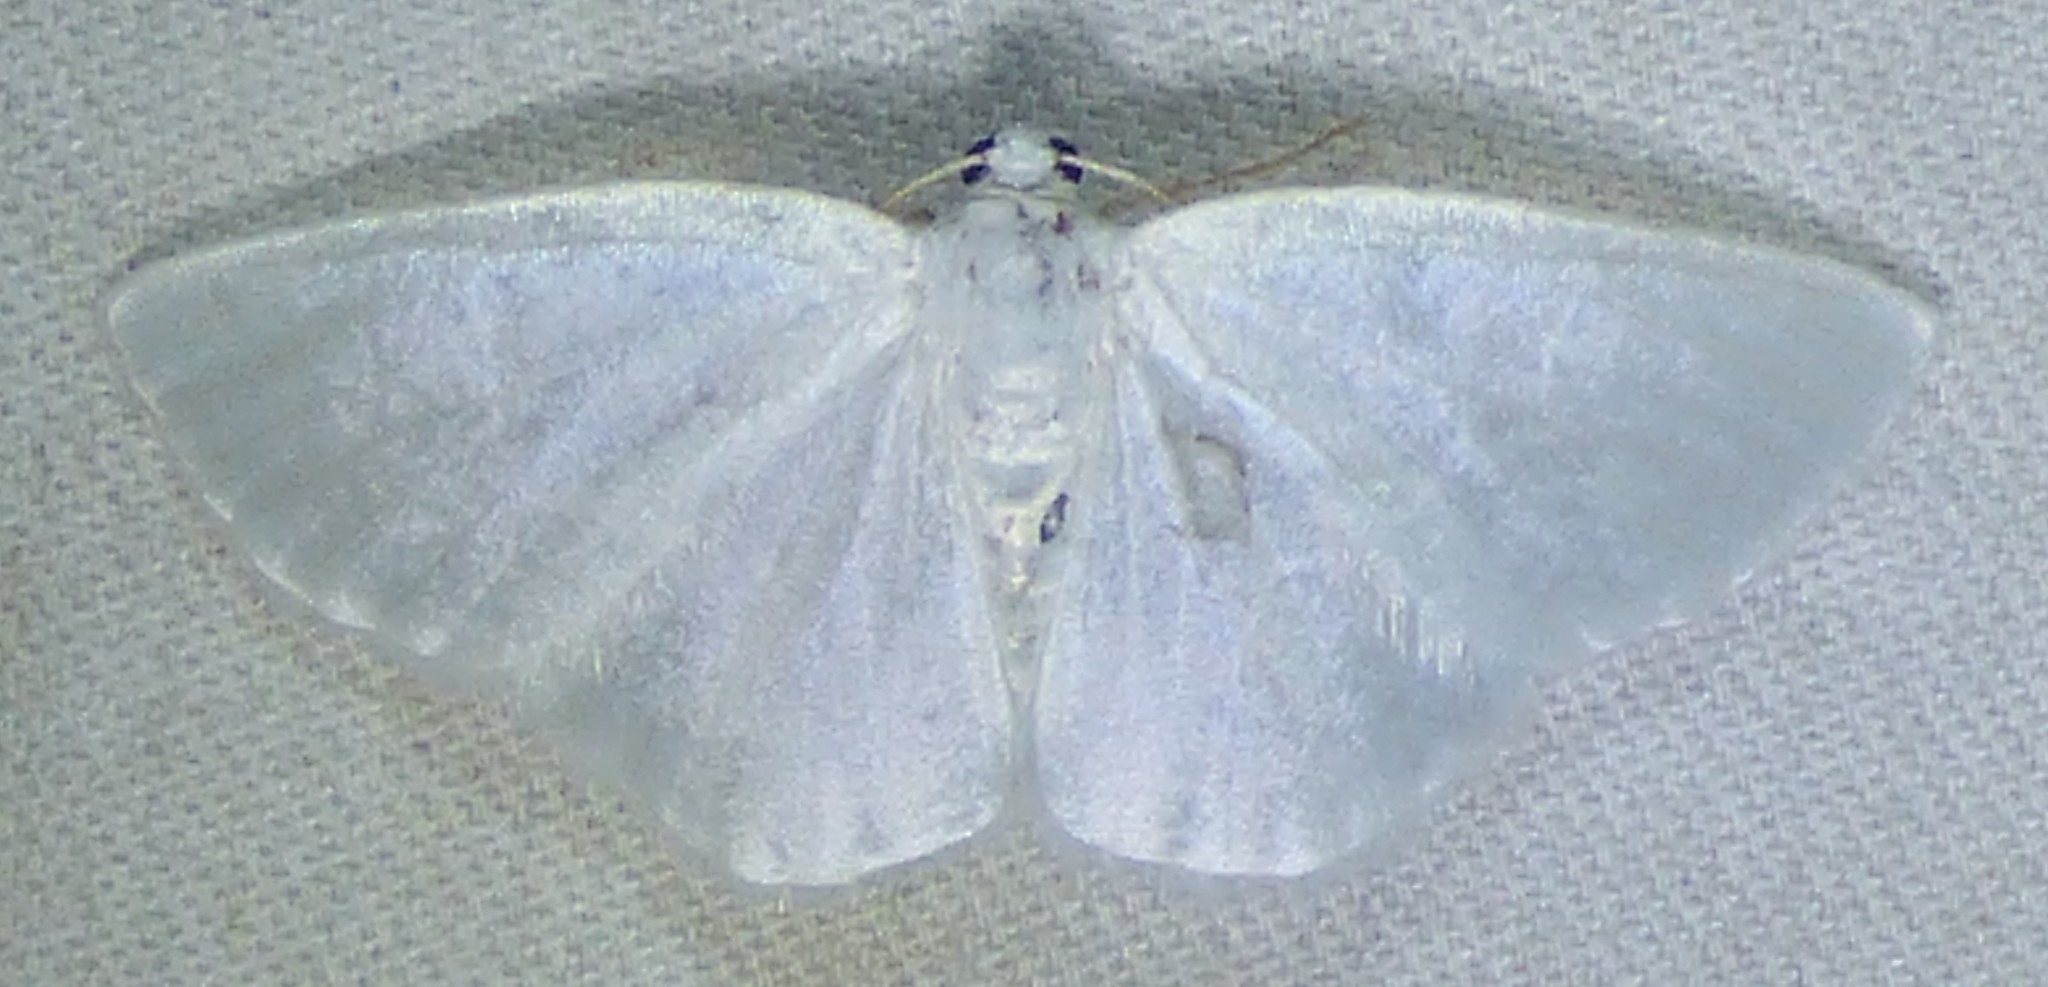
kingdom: Animalia
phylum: Arthropoda
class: Insecta
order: Lepidoptera
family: Geometridae
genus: Lomographa
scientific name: Lomographa vestaliata
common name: White spring moth
